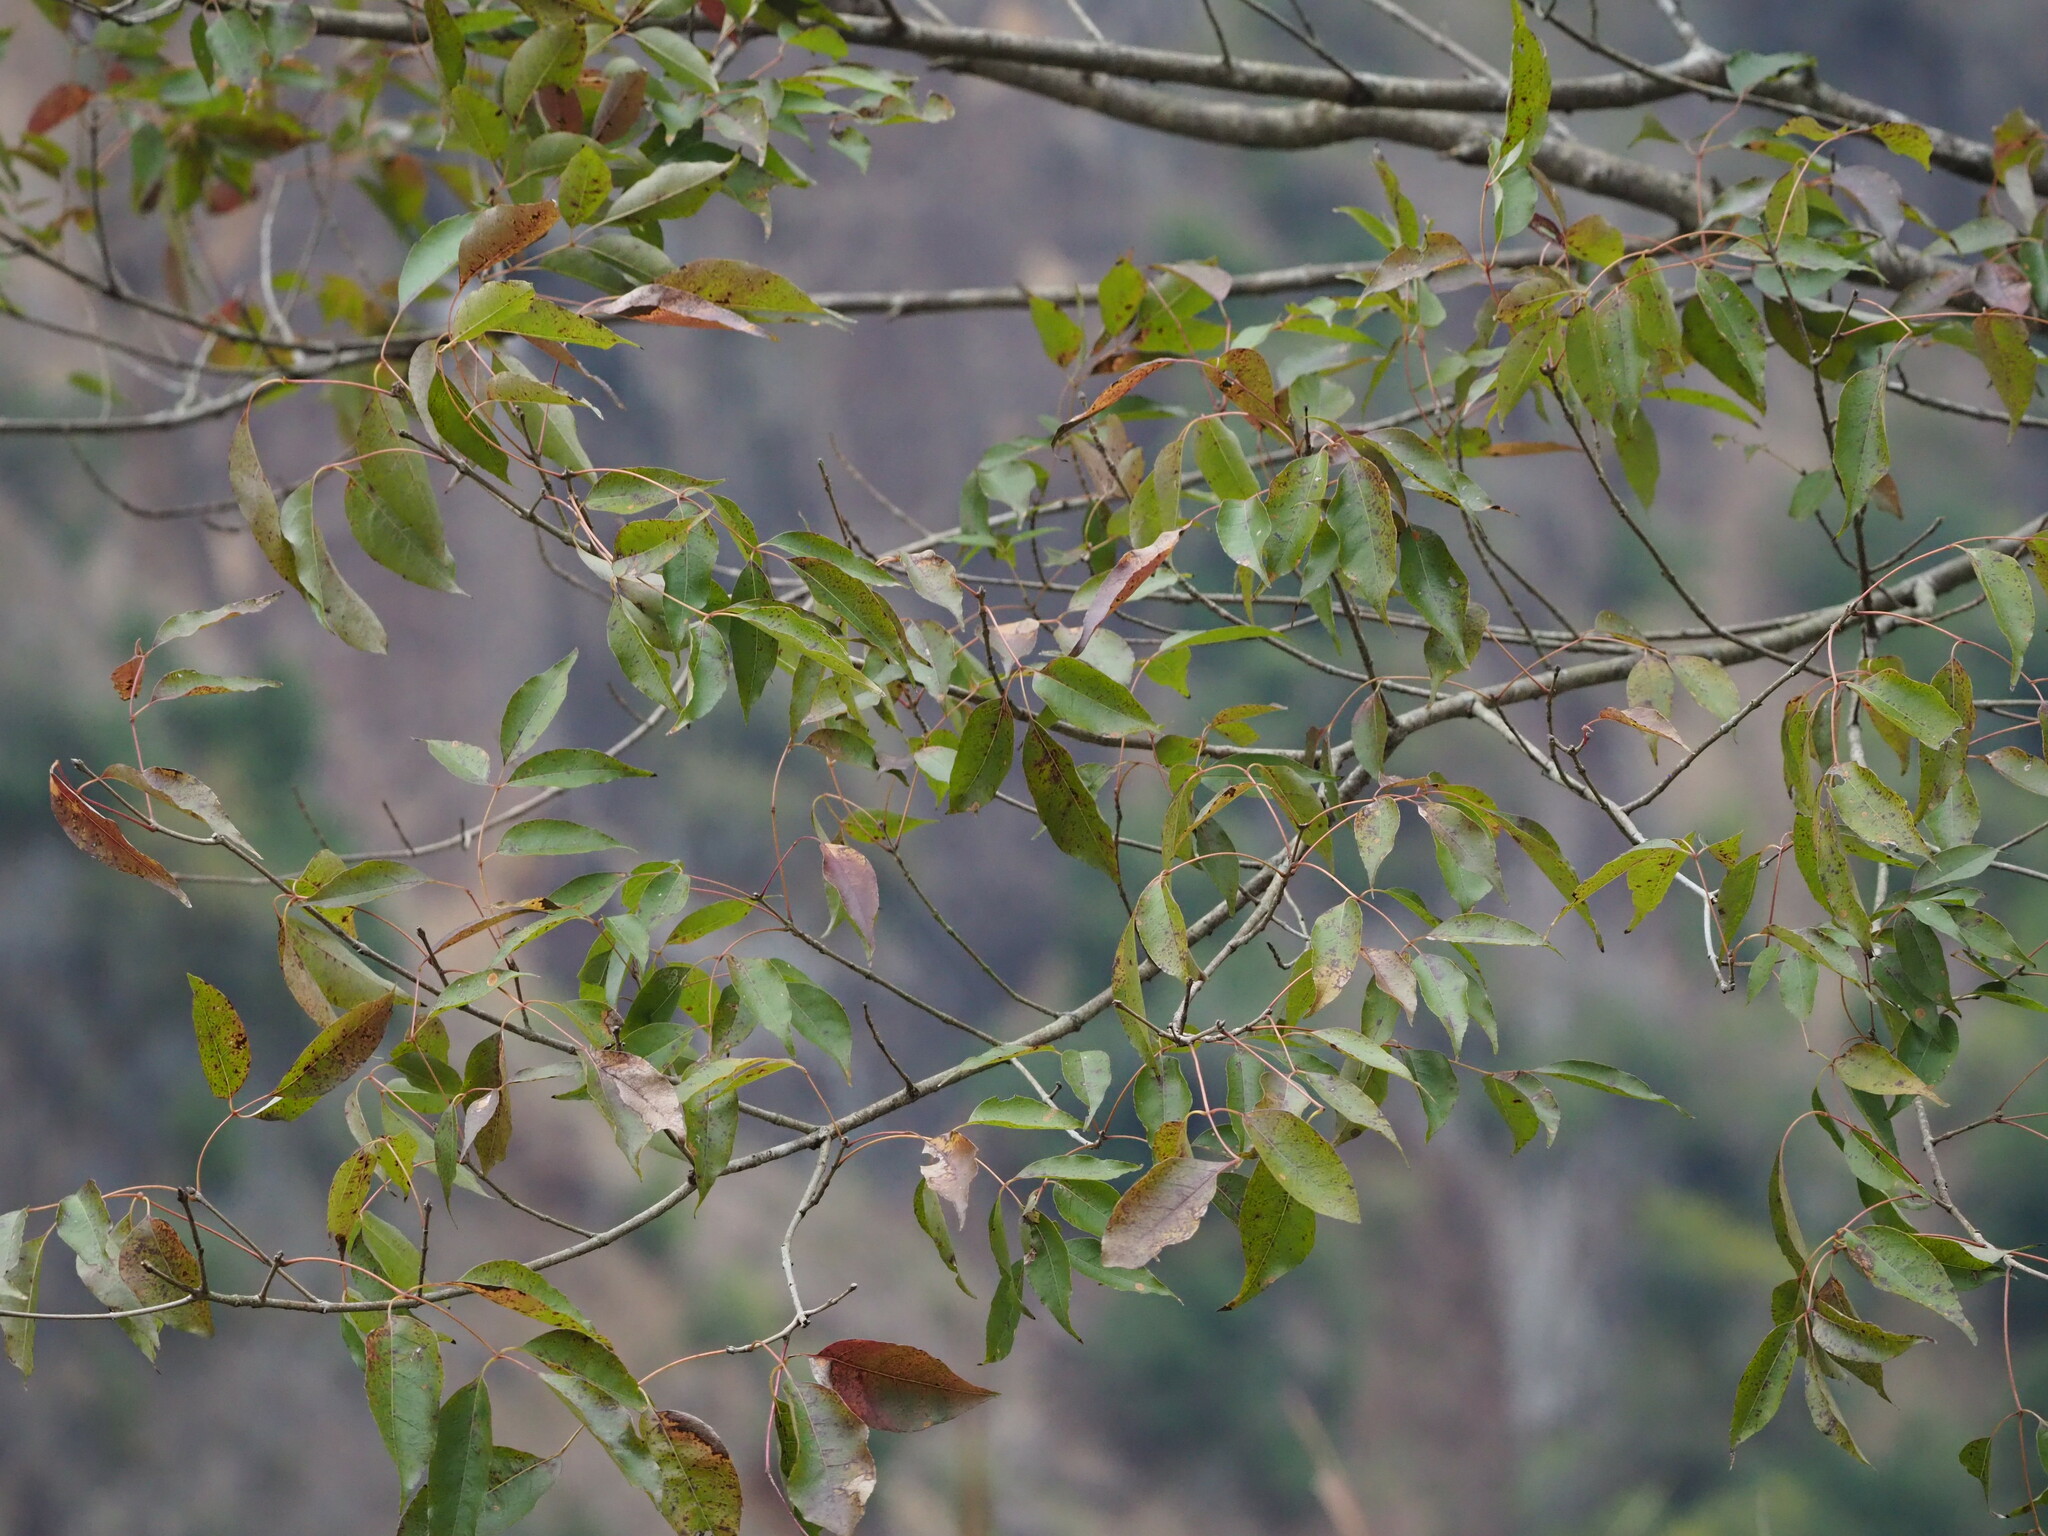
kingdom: Plantae
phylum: Tracheophyta
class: Magnoliopsida
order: Lamiales
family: Oleaceae
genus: Fraxinus
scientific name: Fraxinus insularis
